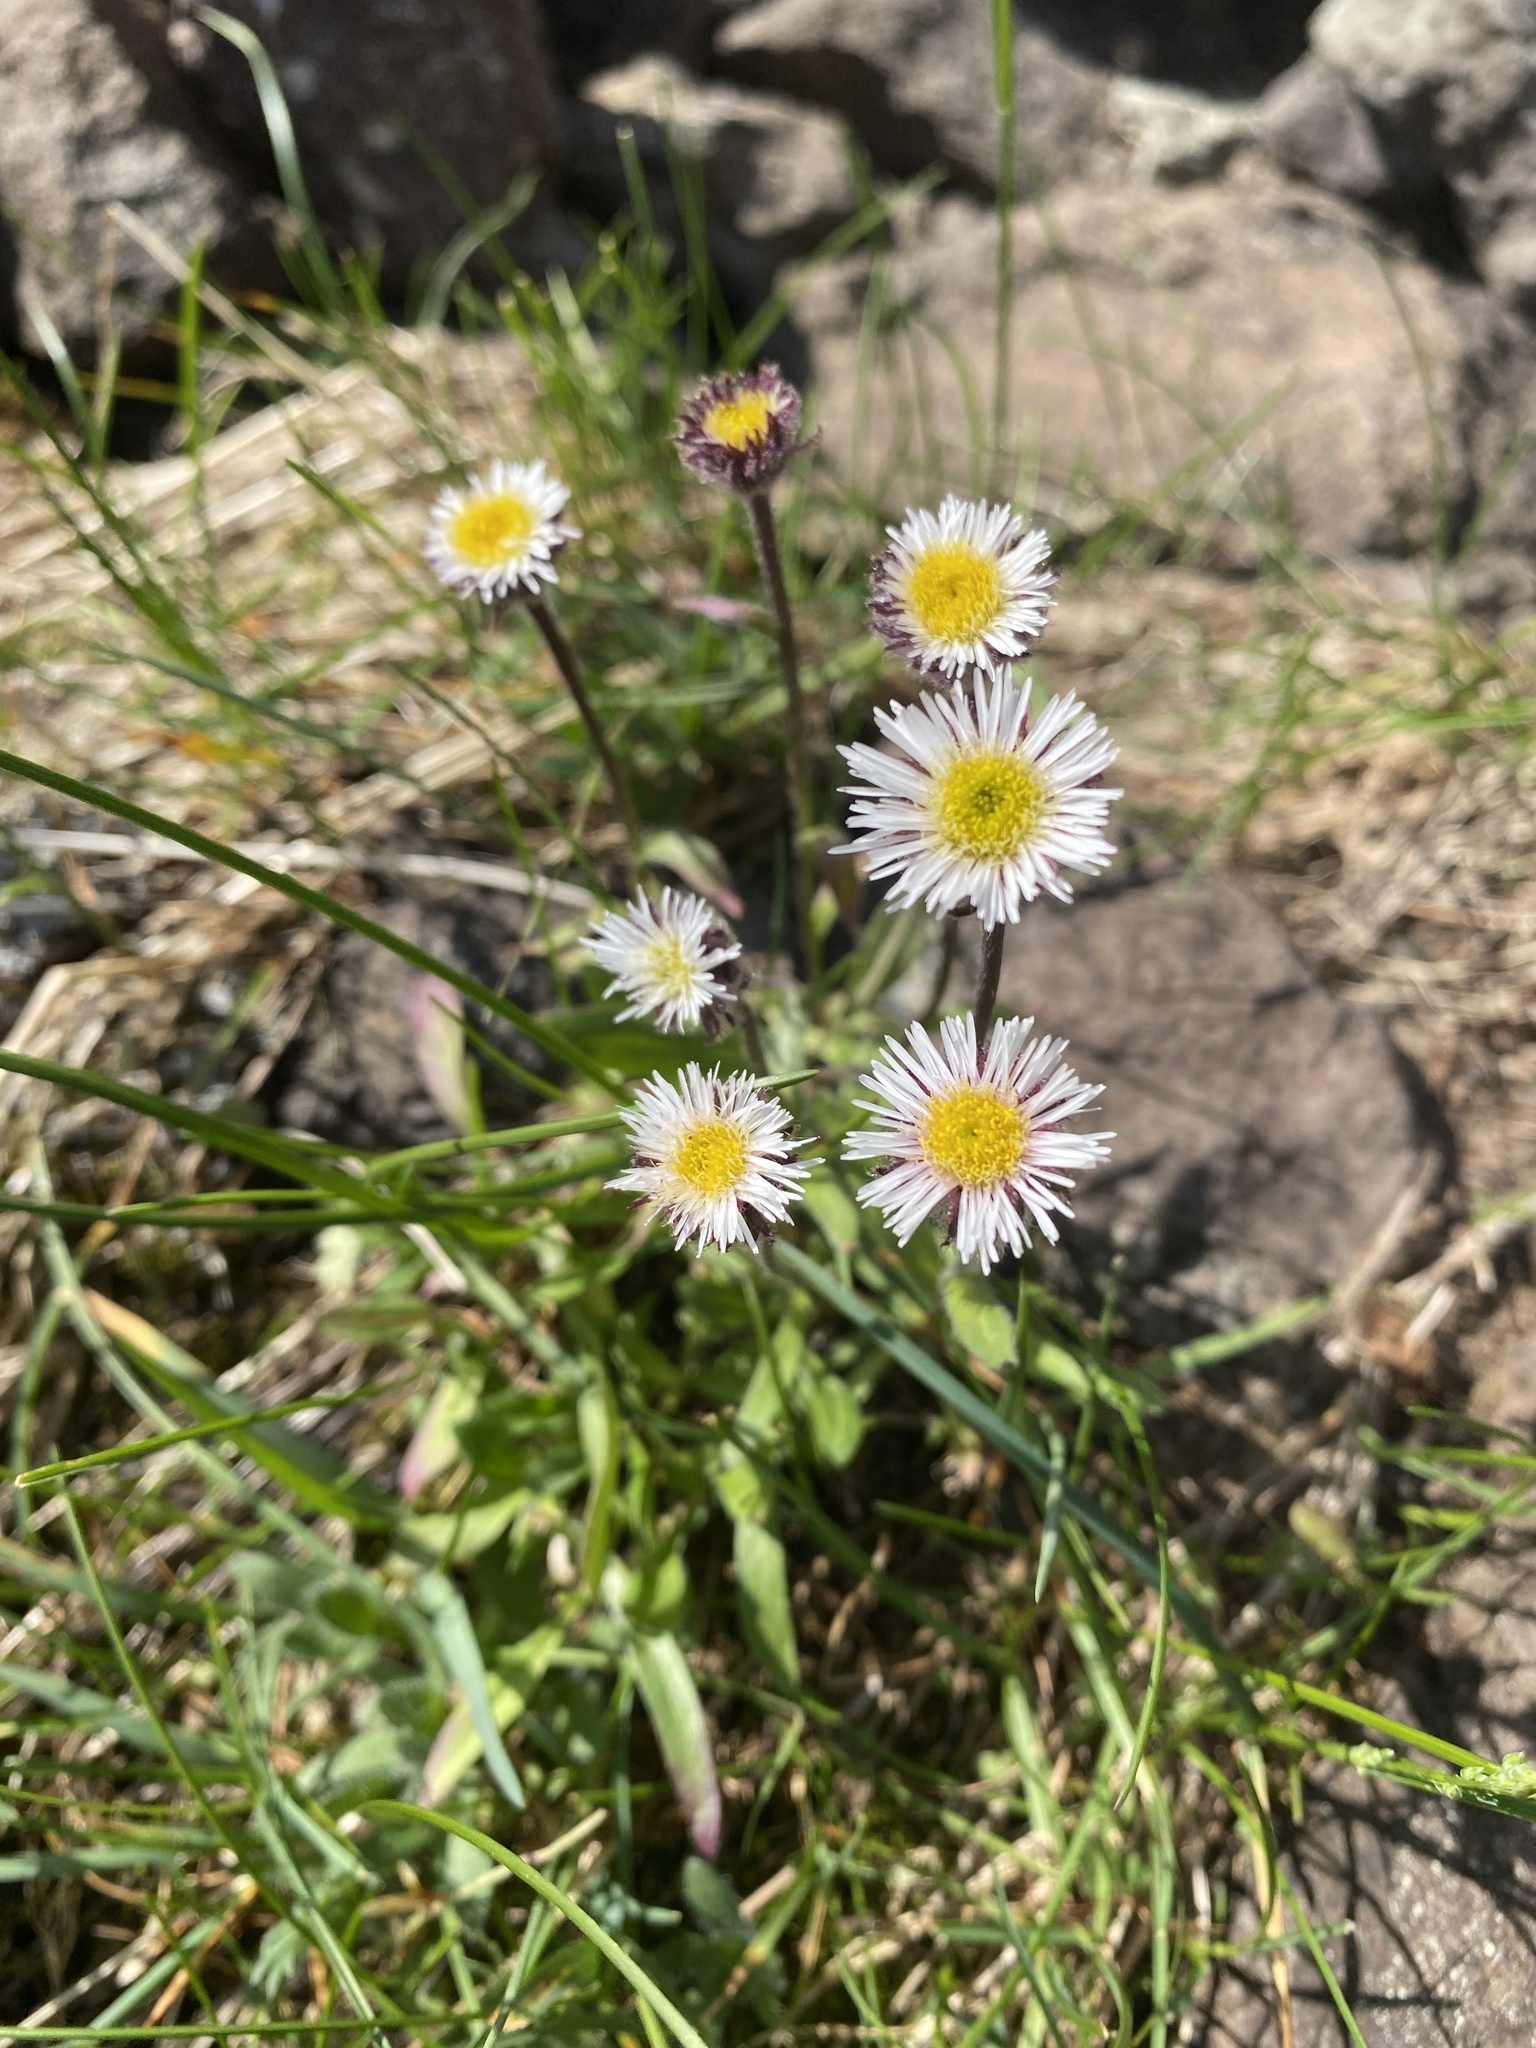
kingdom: Plantae
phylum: Tracheophyta
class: Magnoliopsida
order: Asterales
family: Asteraceae
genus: Erigeron
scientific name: Erigeron eriocalyx
